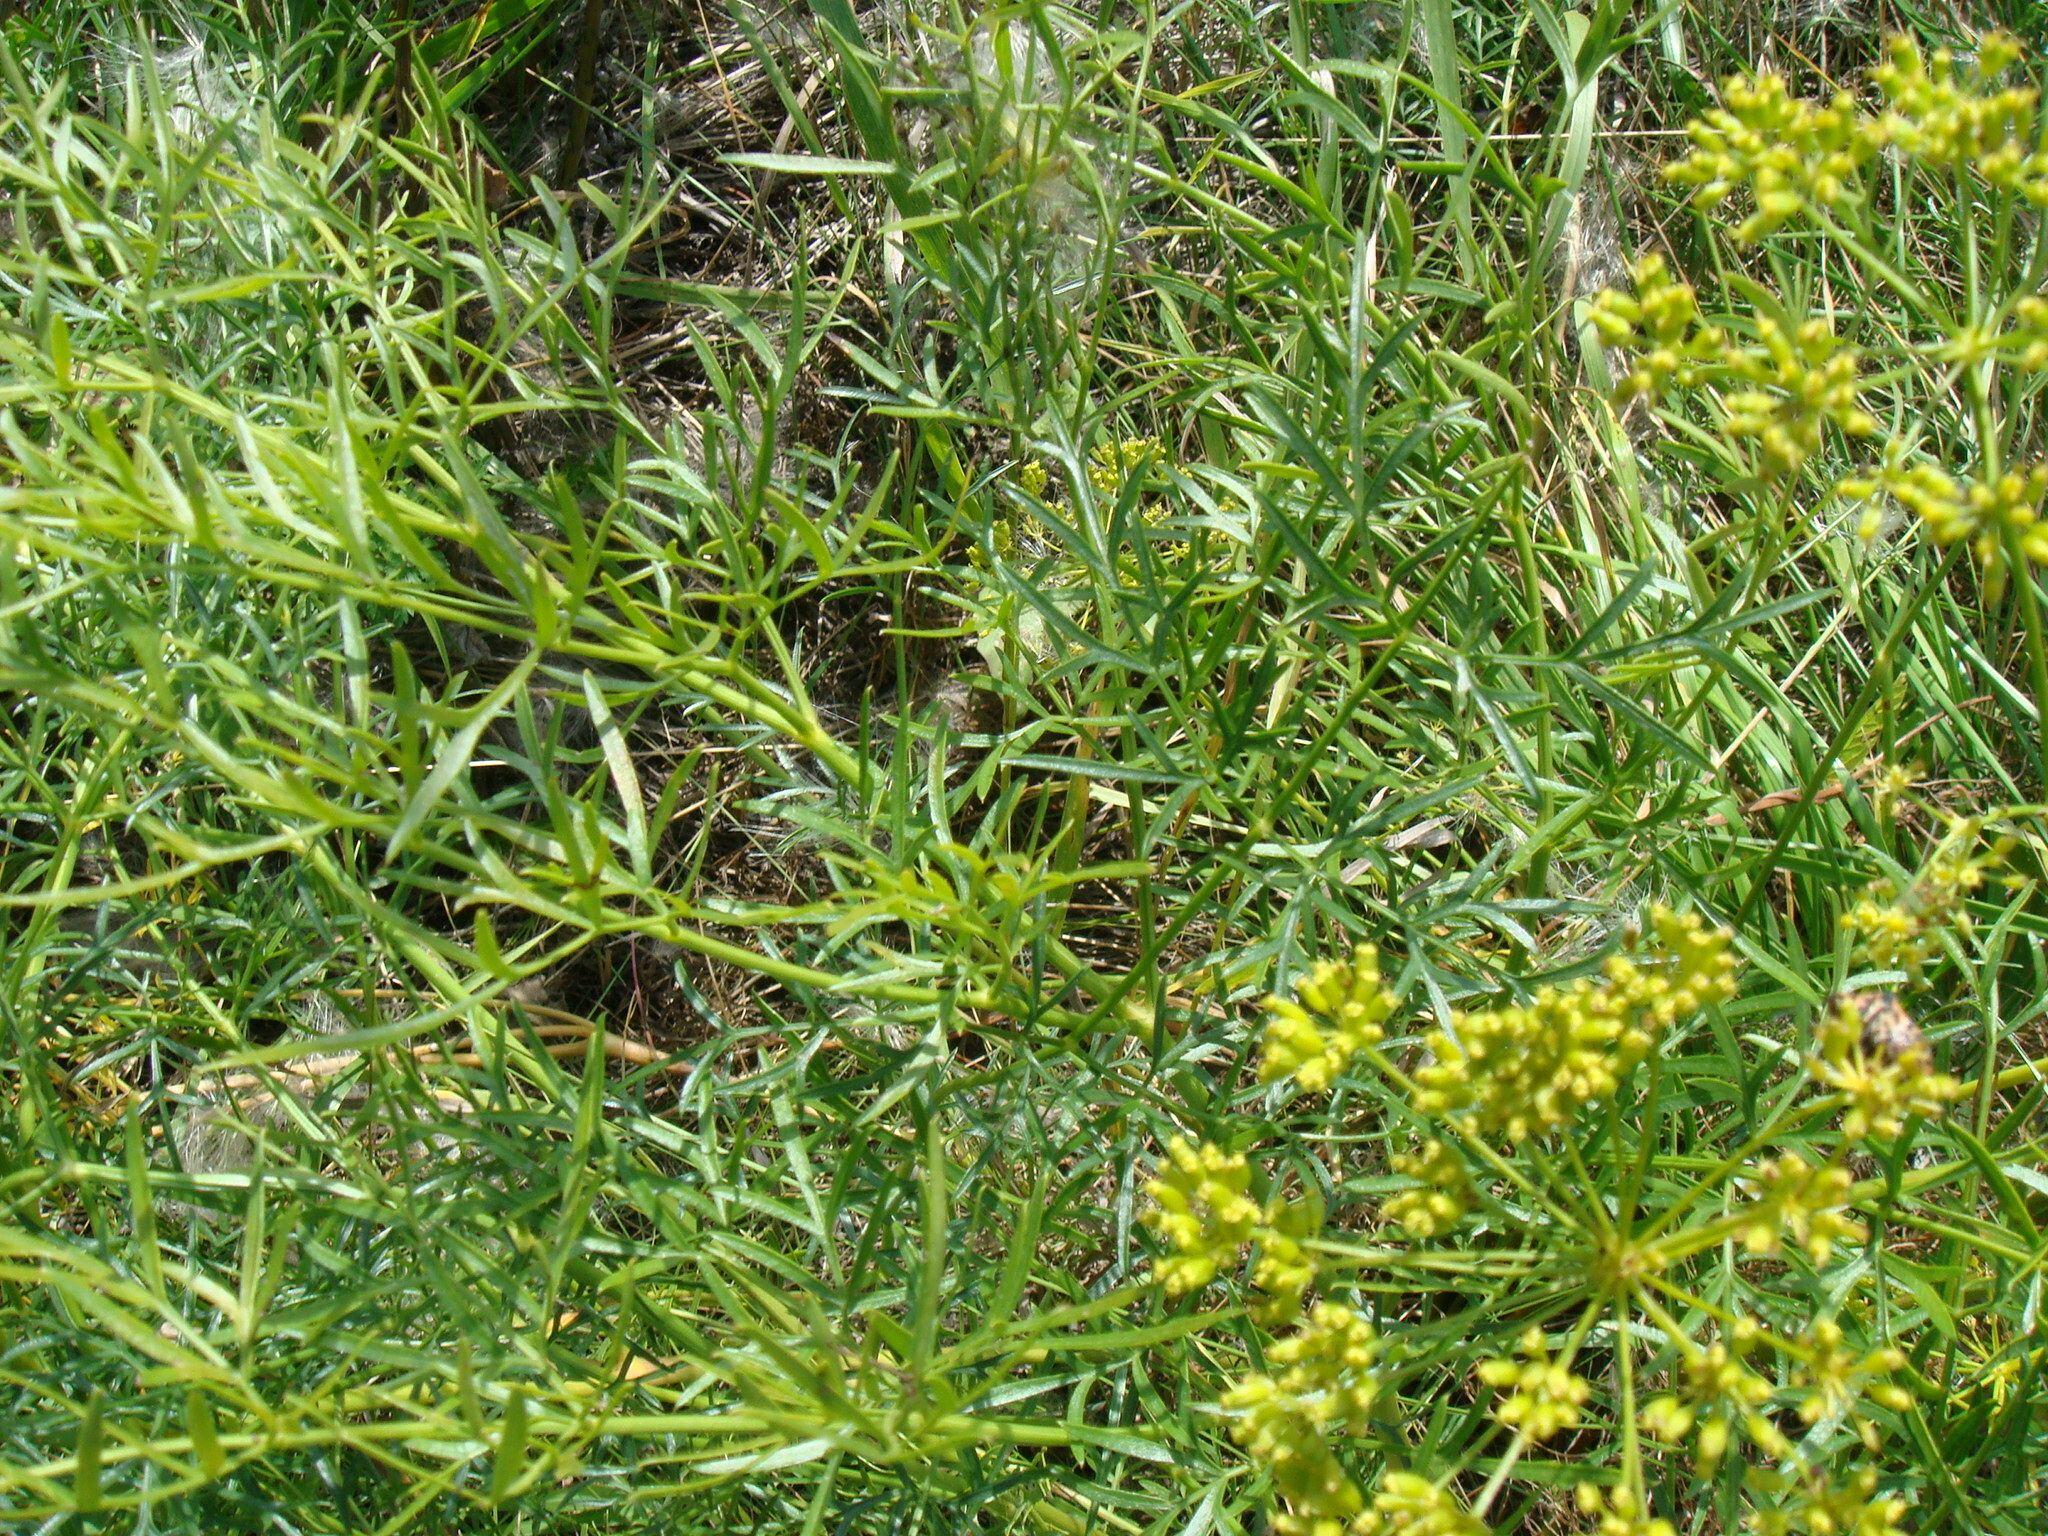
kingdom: Plantae
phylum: Tracheophyta
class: Magnoliopsida
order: Apiales
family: Apiaceae
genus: Silaum
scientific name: Silaum silaus
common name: Pepper-saxifrage
